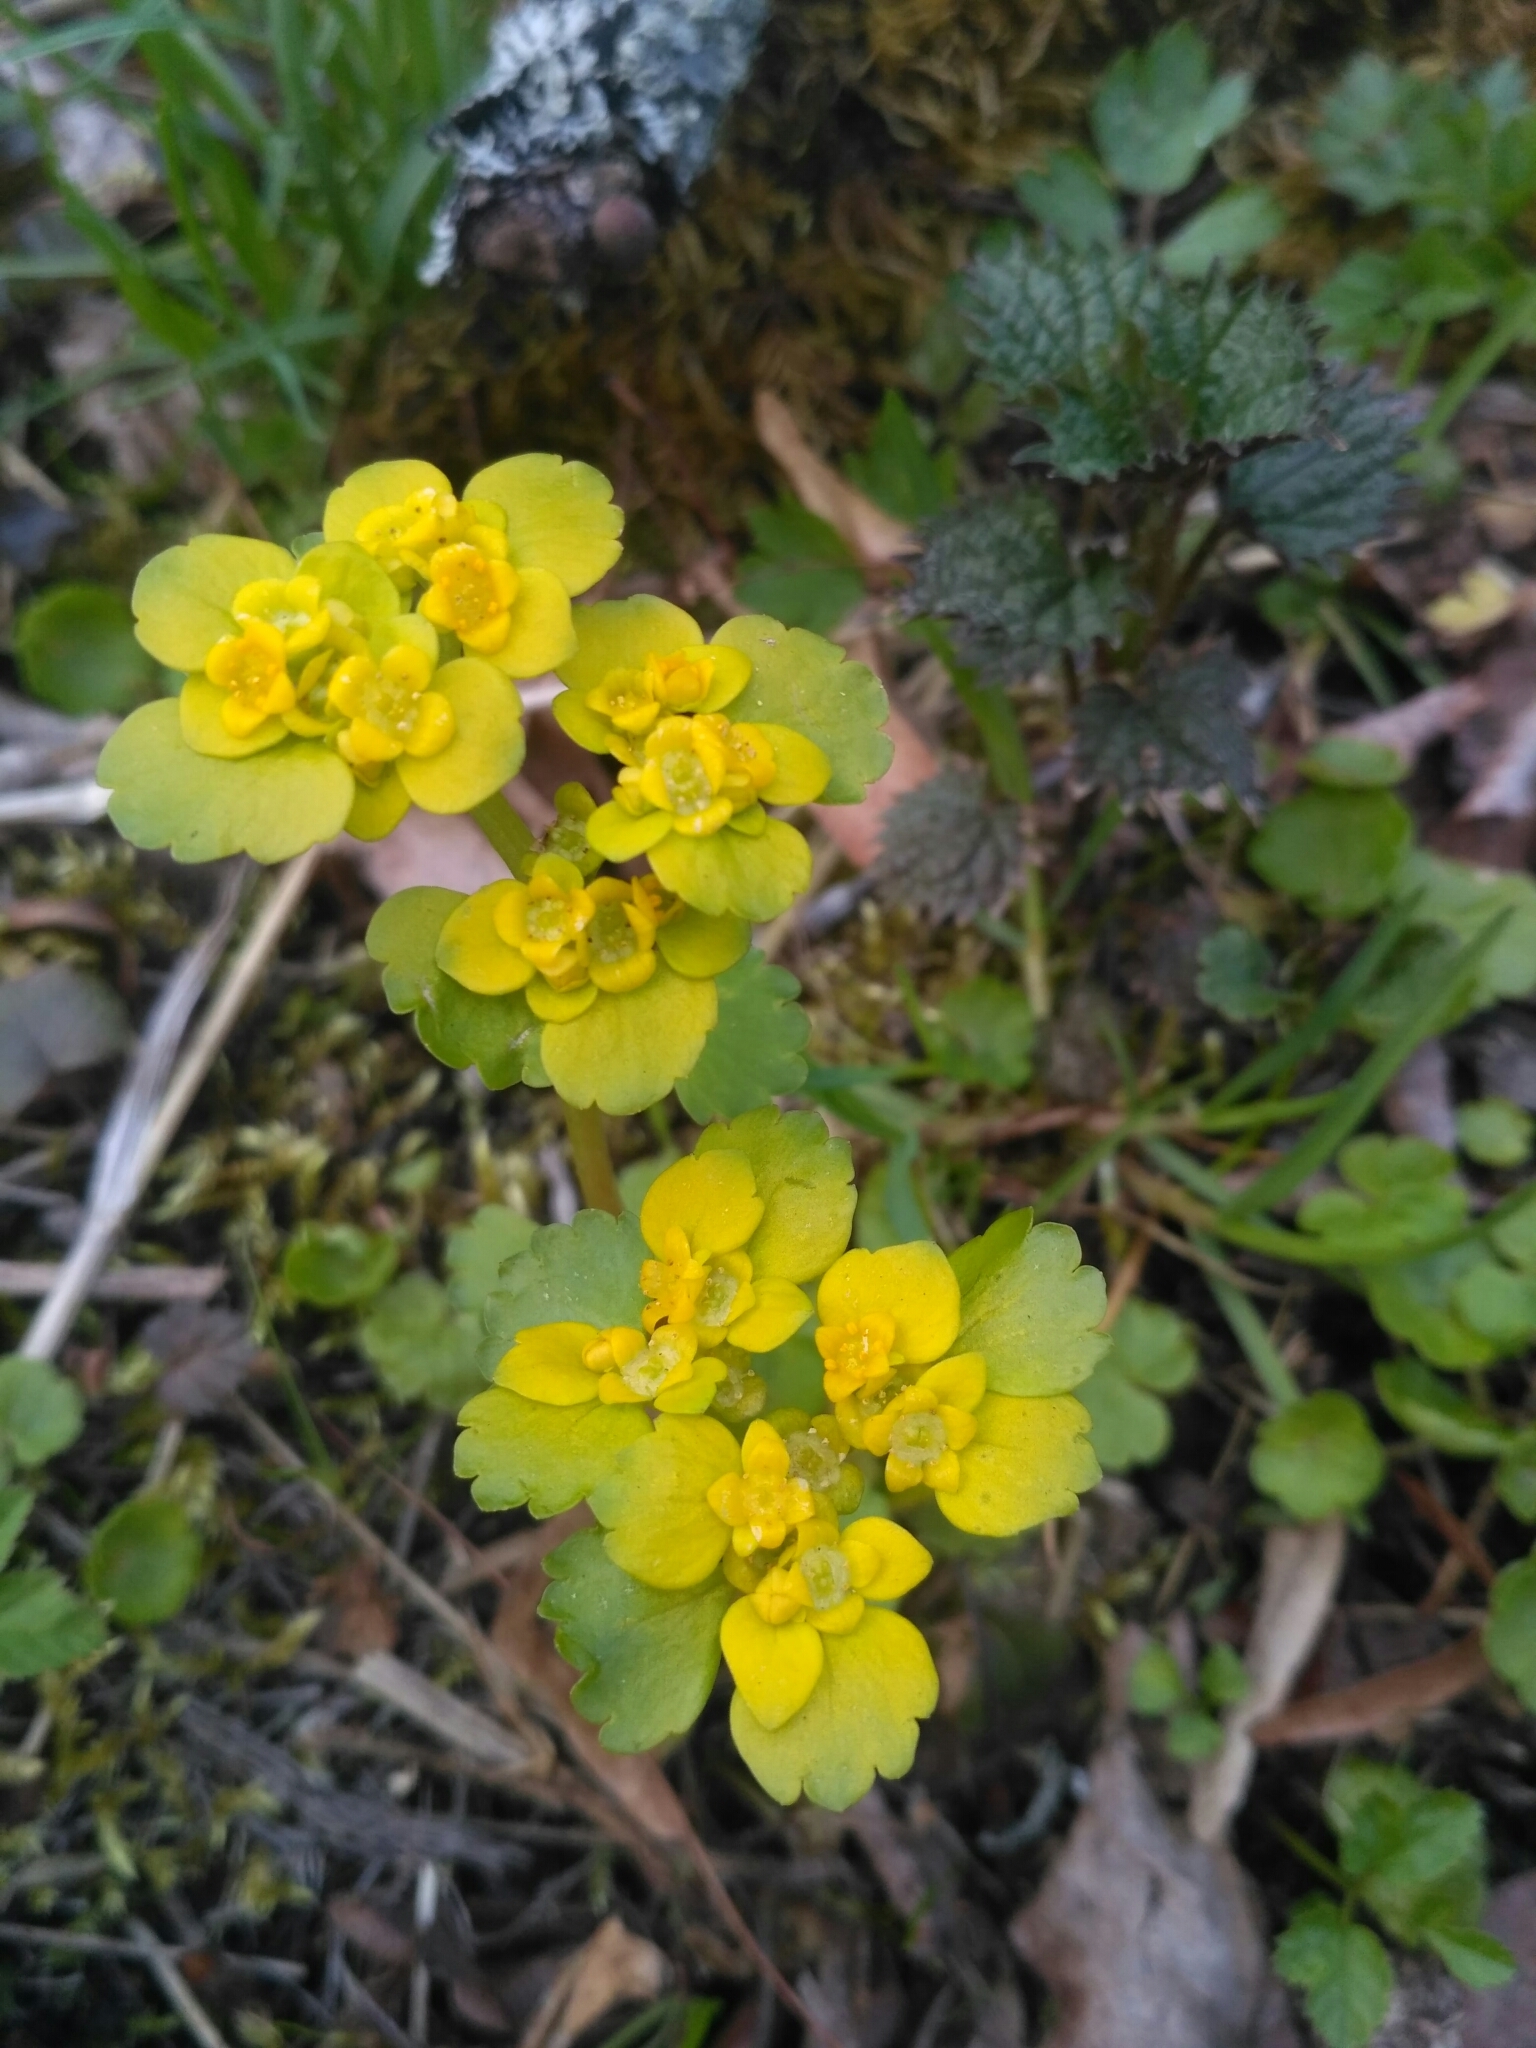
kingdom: Plantae
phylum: Tracheophyta
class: Magnoliopsida
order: Saxifragales
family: Saxifragaceae
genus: Chrysosplenium
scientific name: Chrysosplenium alternifolium
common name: Alternate-leaved golden-saxifrage
